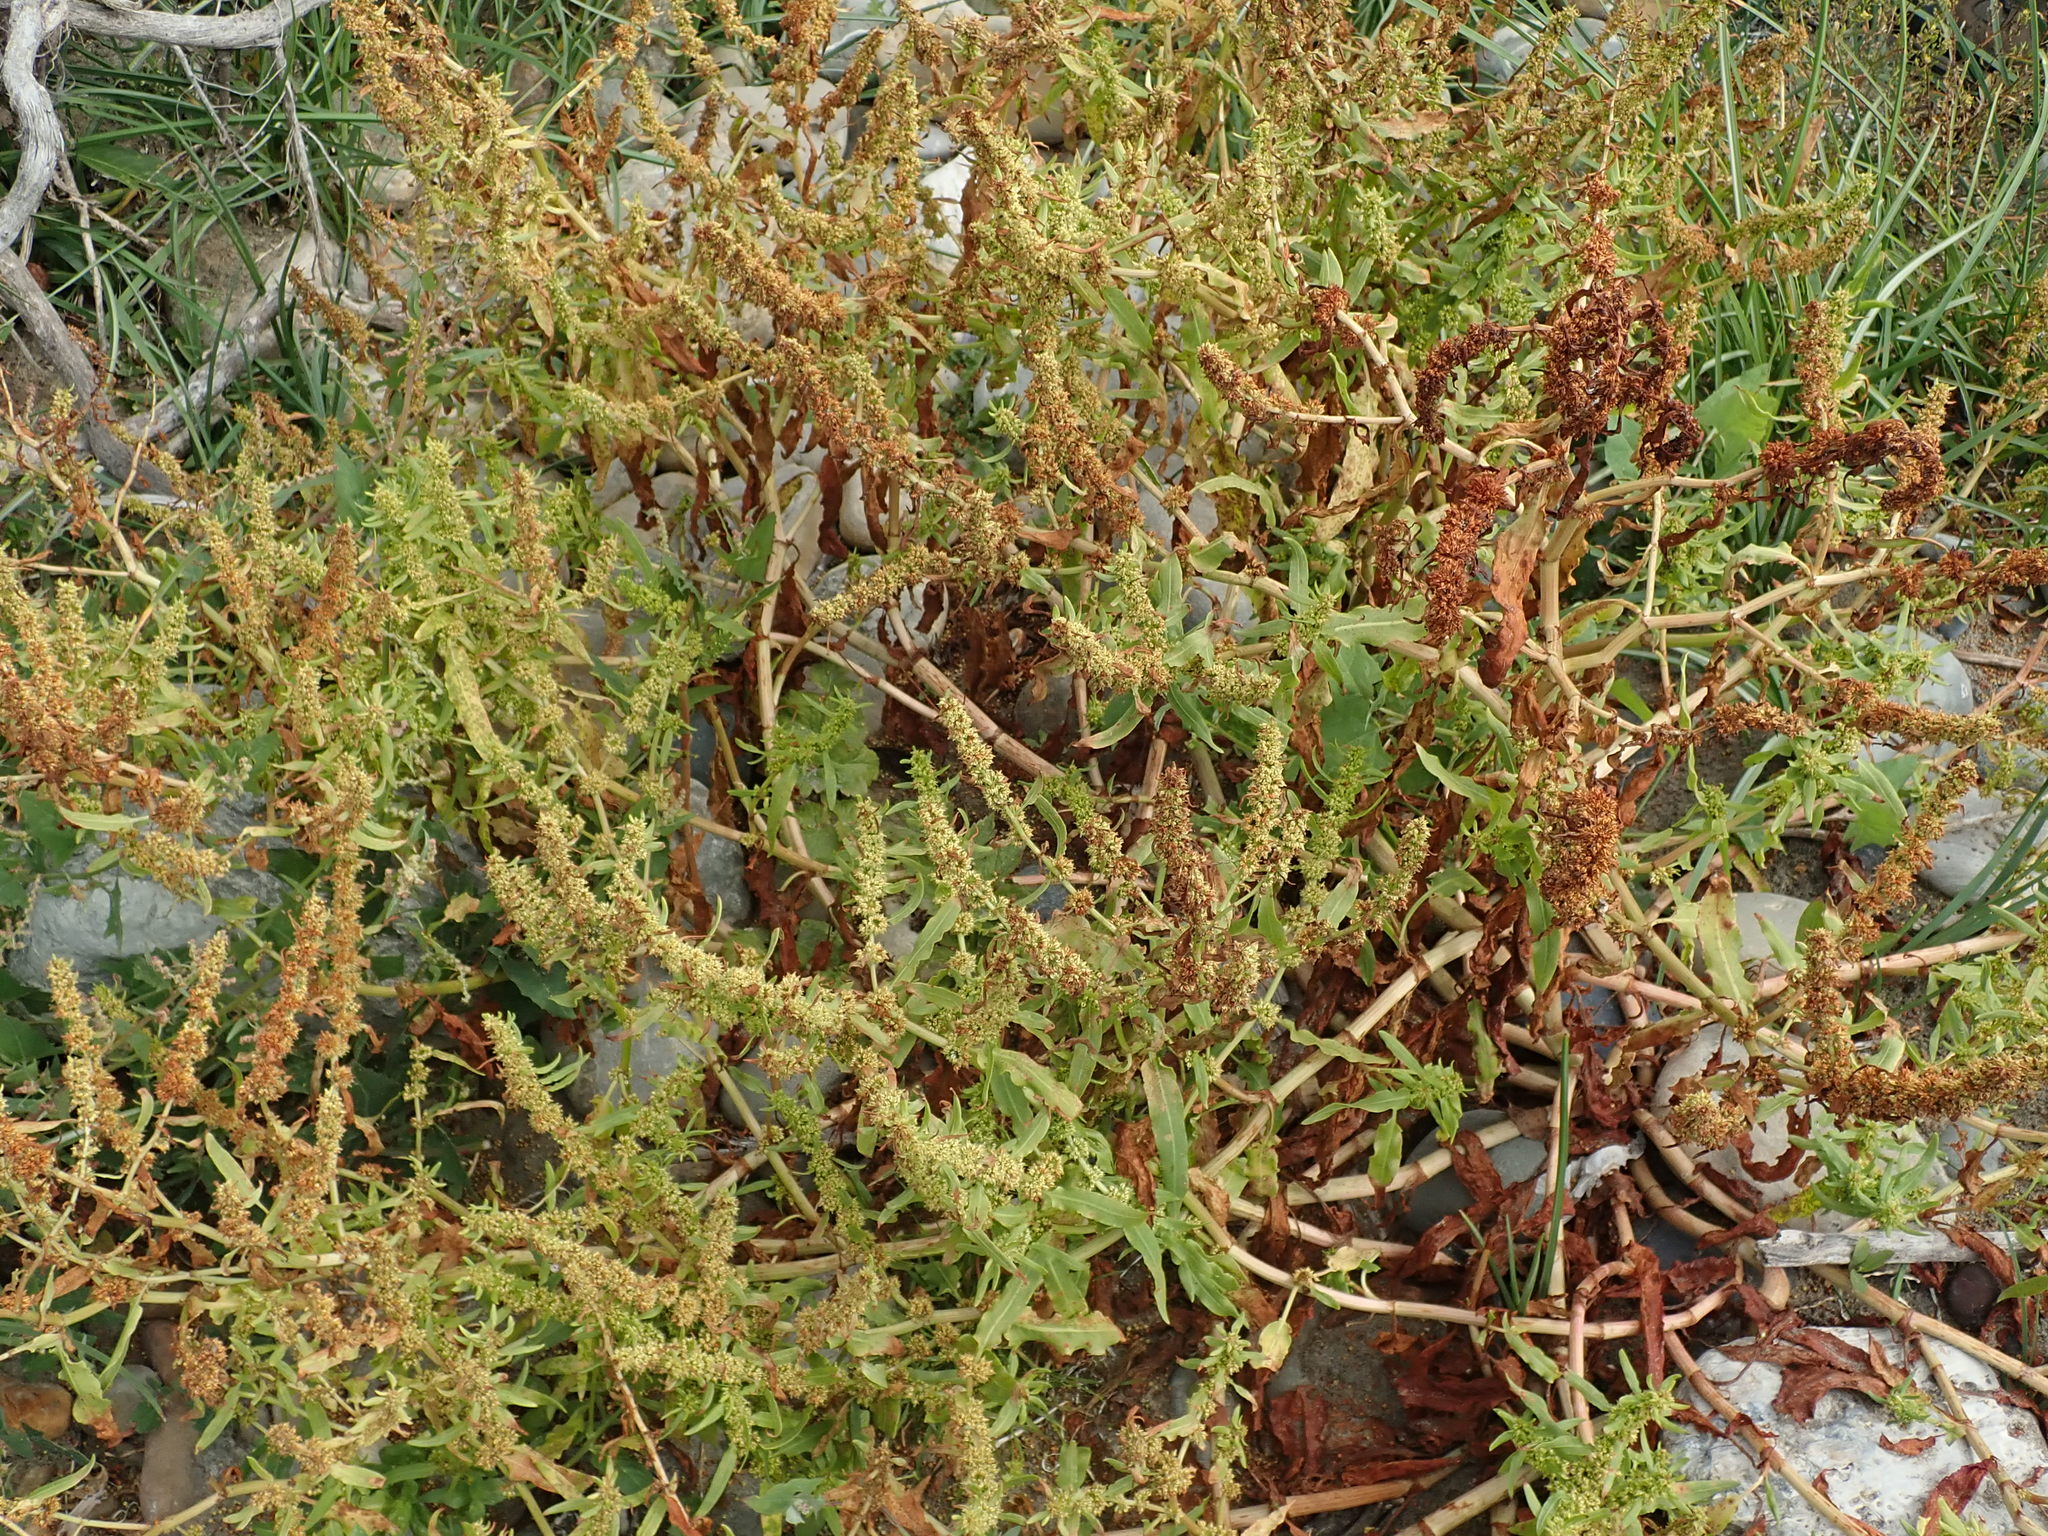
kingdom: Plantae
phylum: Tracheophyta
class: Magnoliopsida
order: Caryophyllales
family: Polygonaceae
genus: Rumex
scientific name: Rumex fueginus
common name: American golden dock
